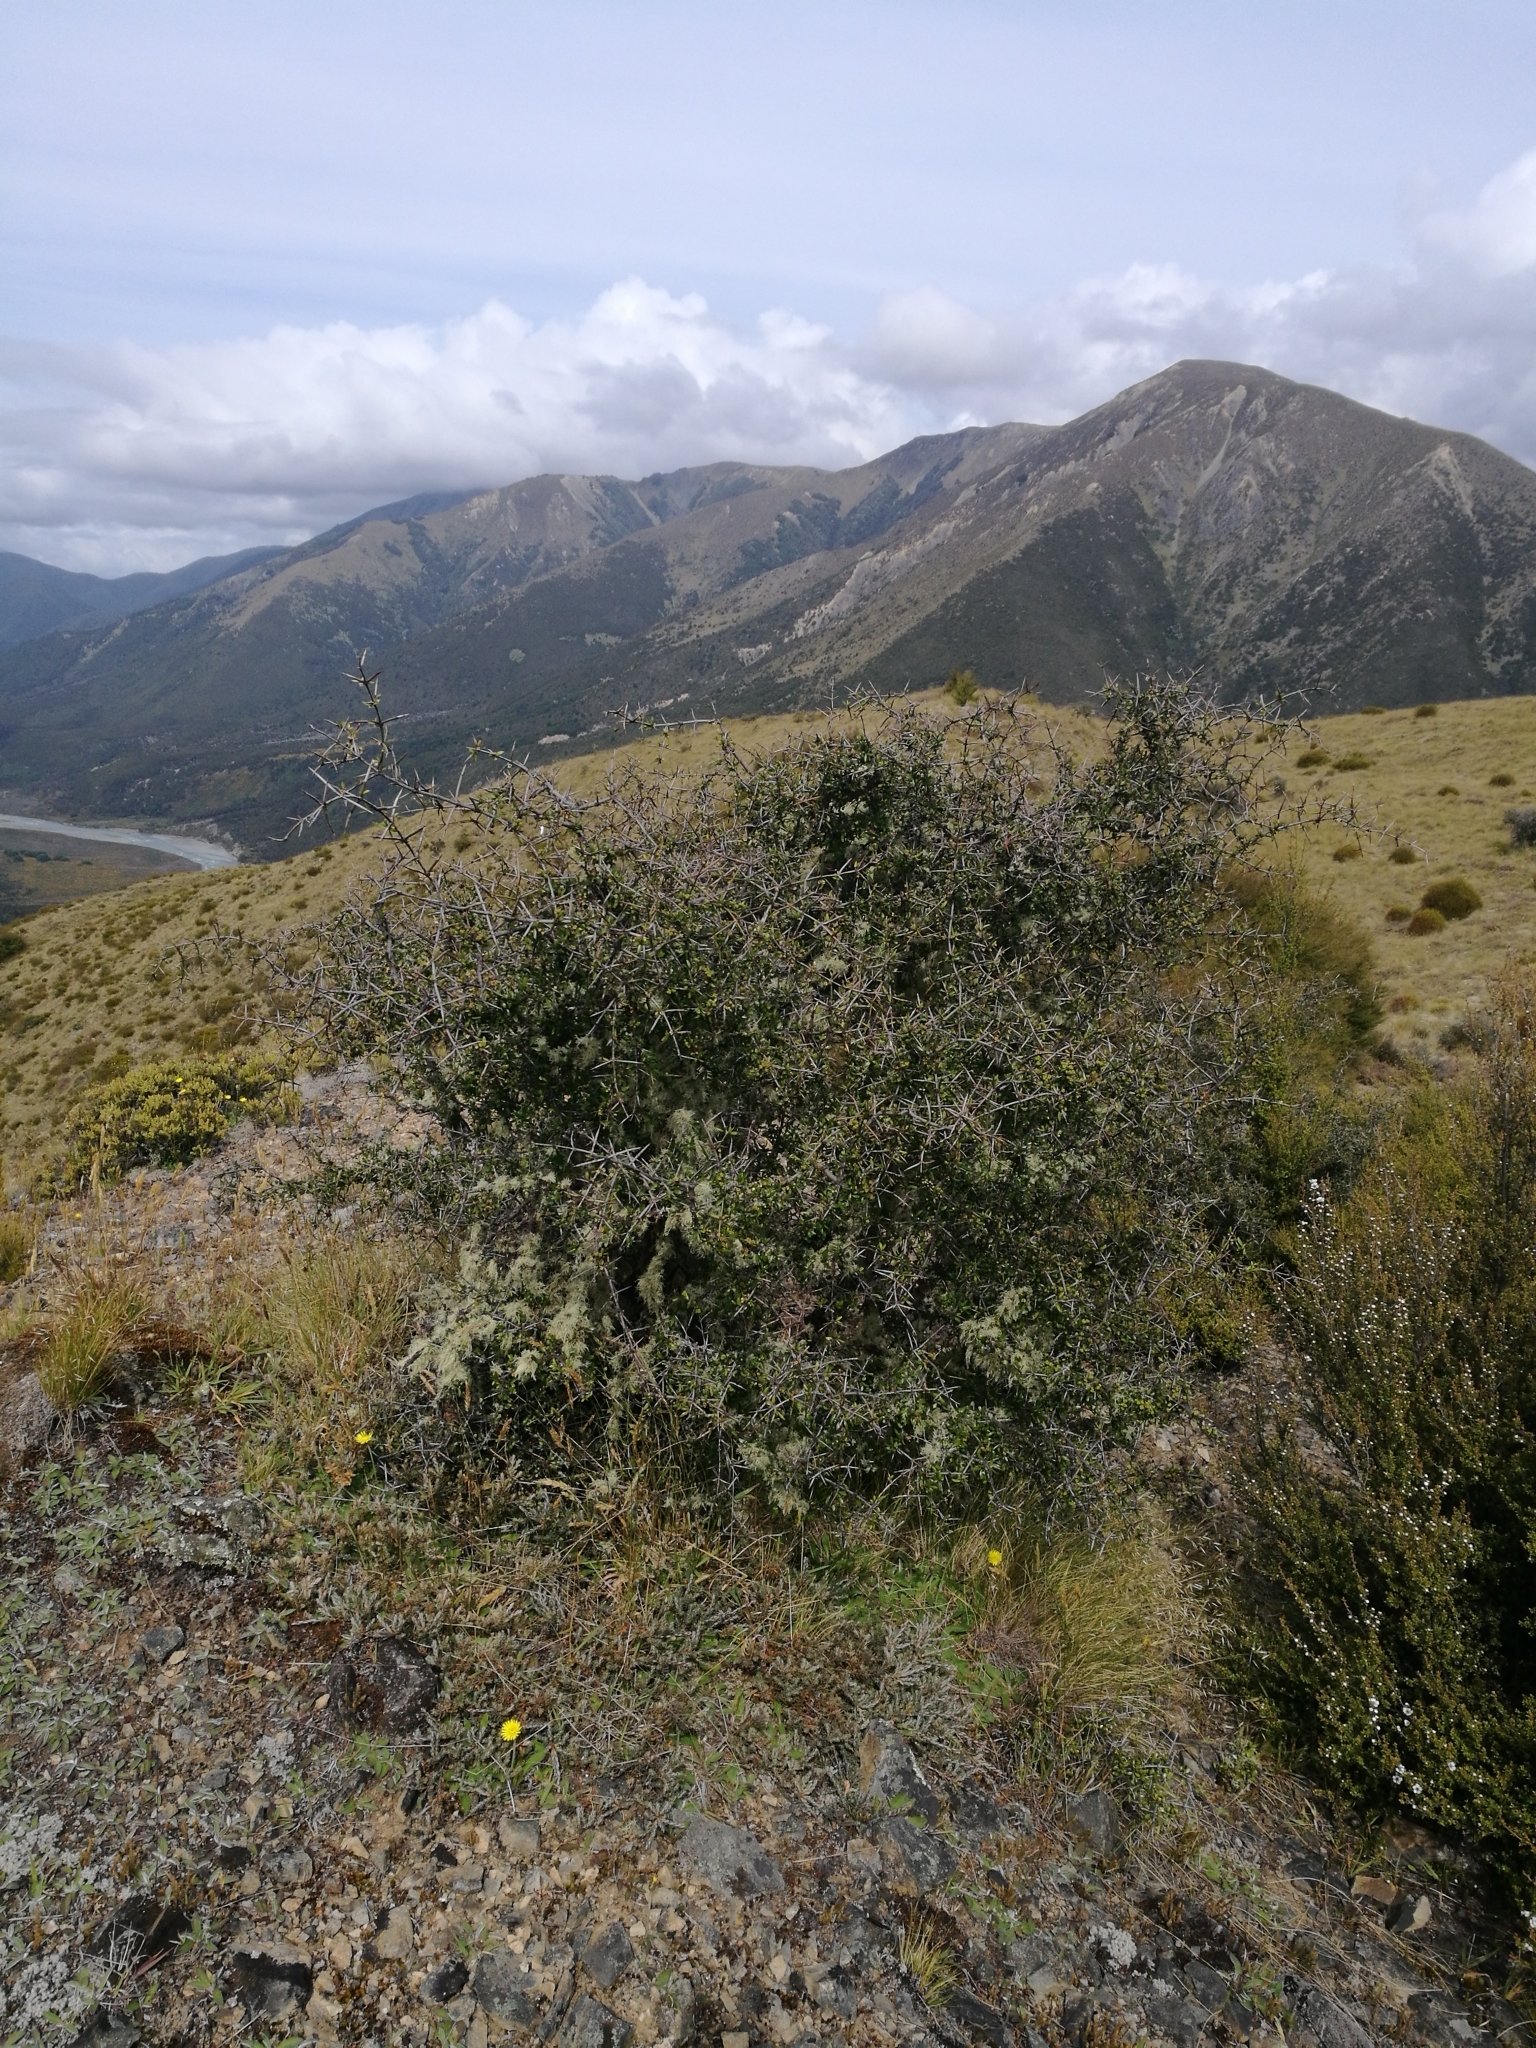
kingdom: Plantae
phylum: Tracheophyta
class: Magnoliopsida
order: Rosales
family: Rhamnaceae
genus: Discaria
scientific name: Discaria toumatou
